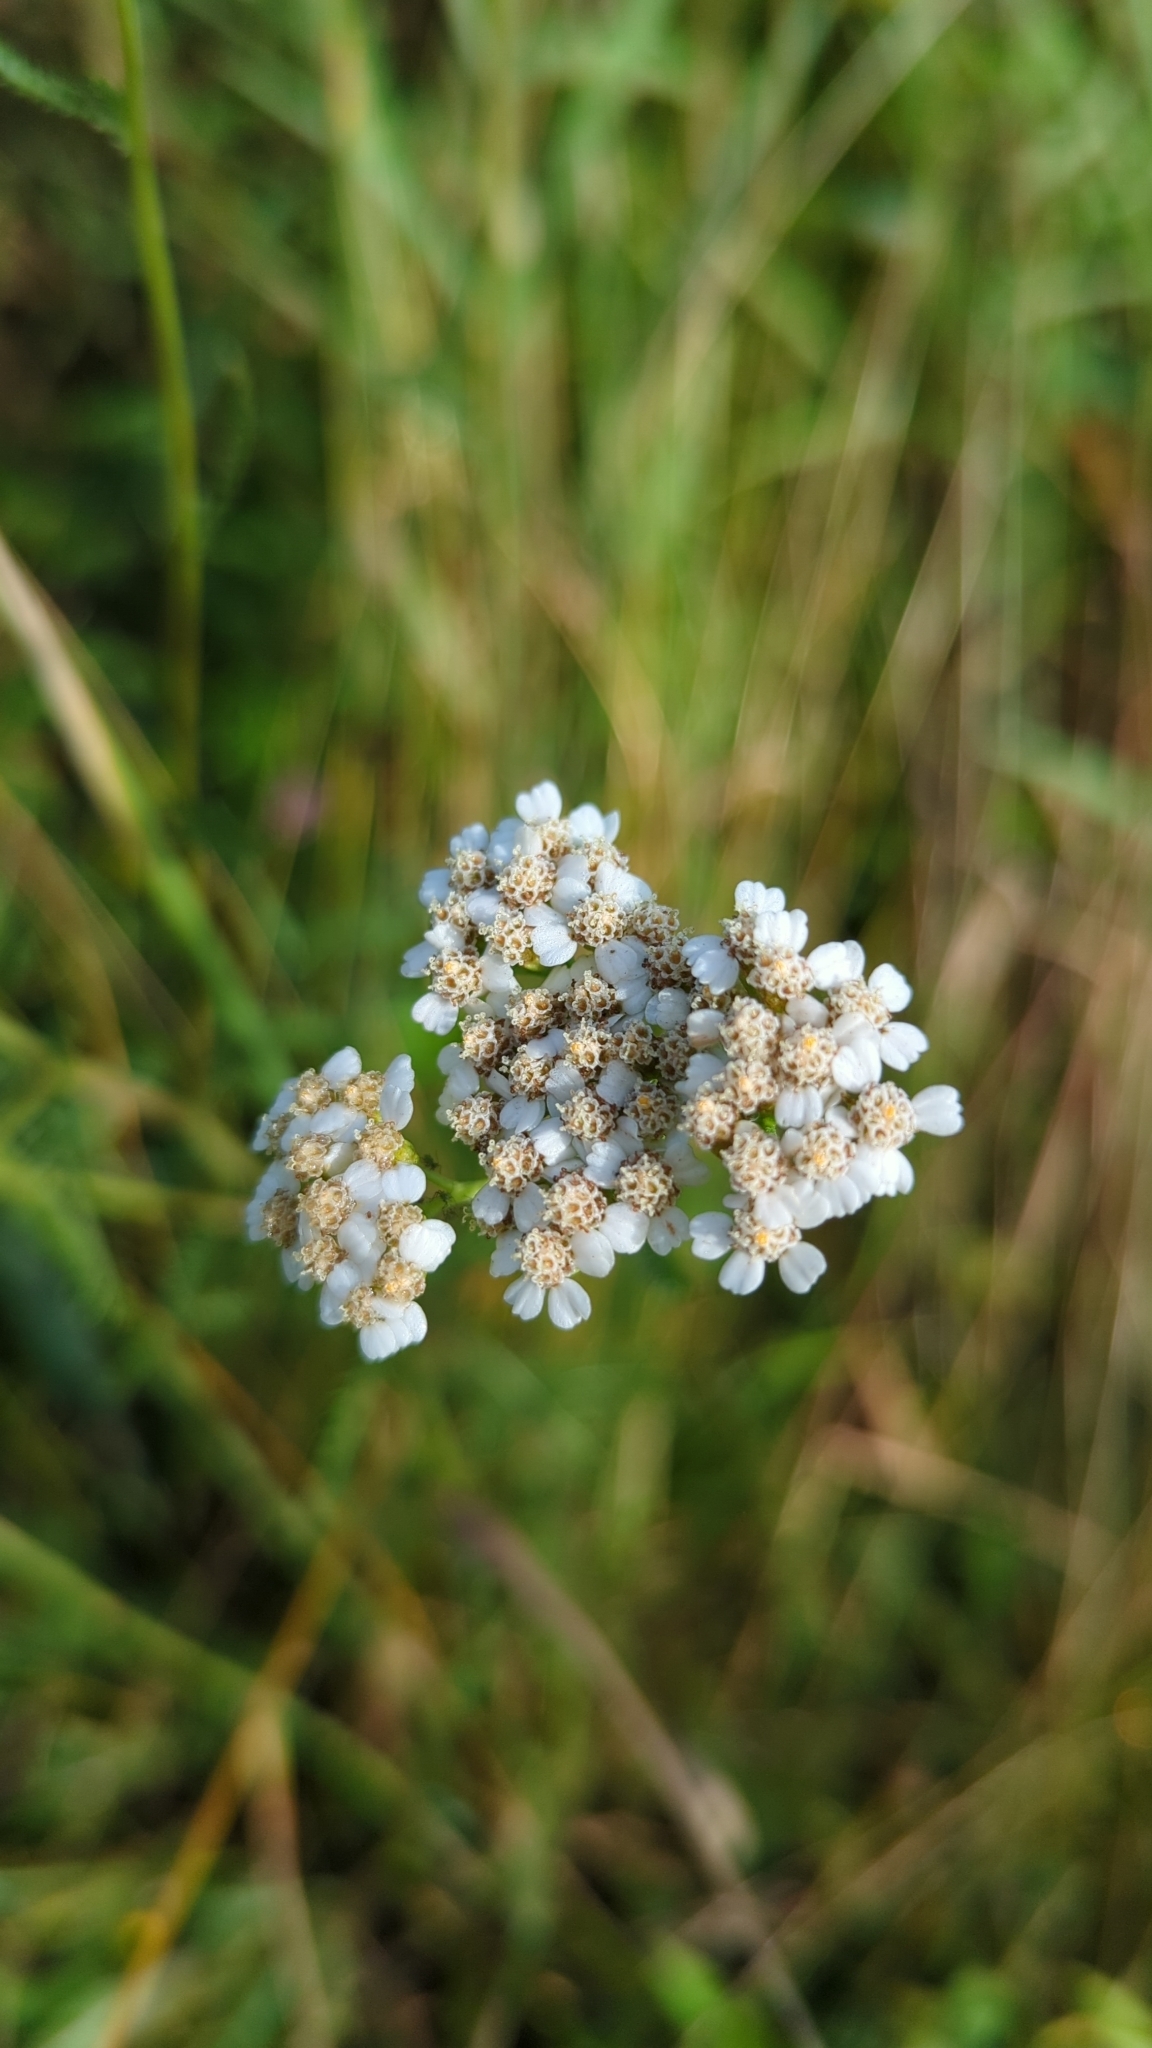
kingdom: Plantae
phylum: Tracheophyta
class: Magnoliopsida
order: Asterales
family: Asteraceae
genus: Achillea
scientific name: Achillea millefolium
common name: Yarrow
